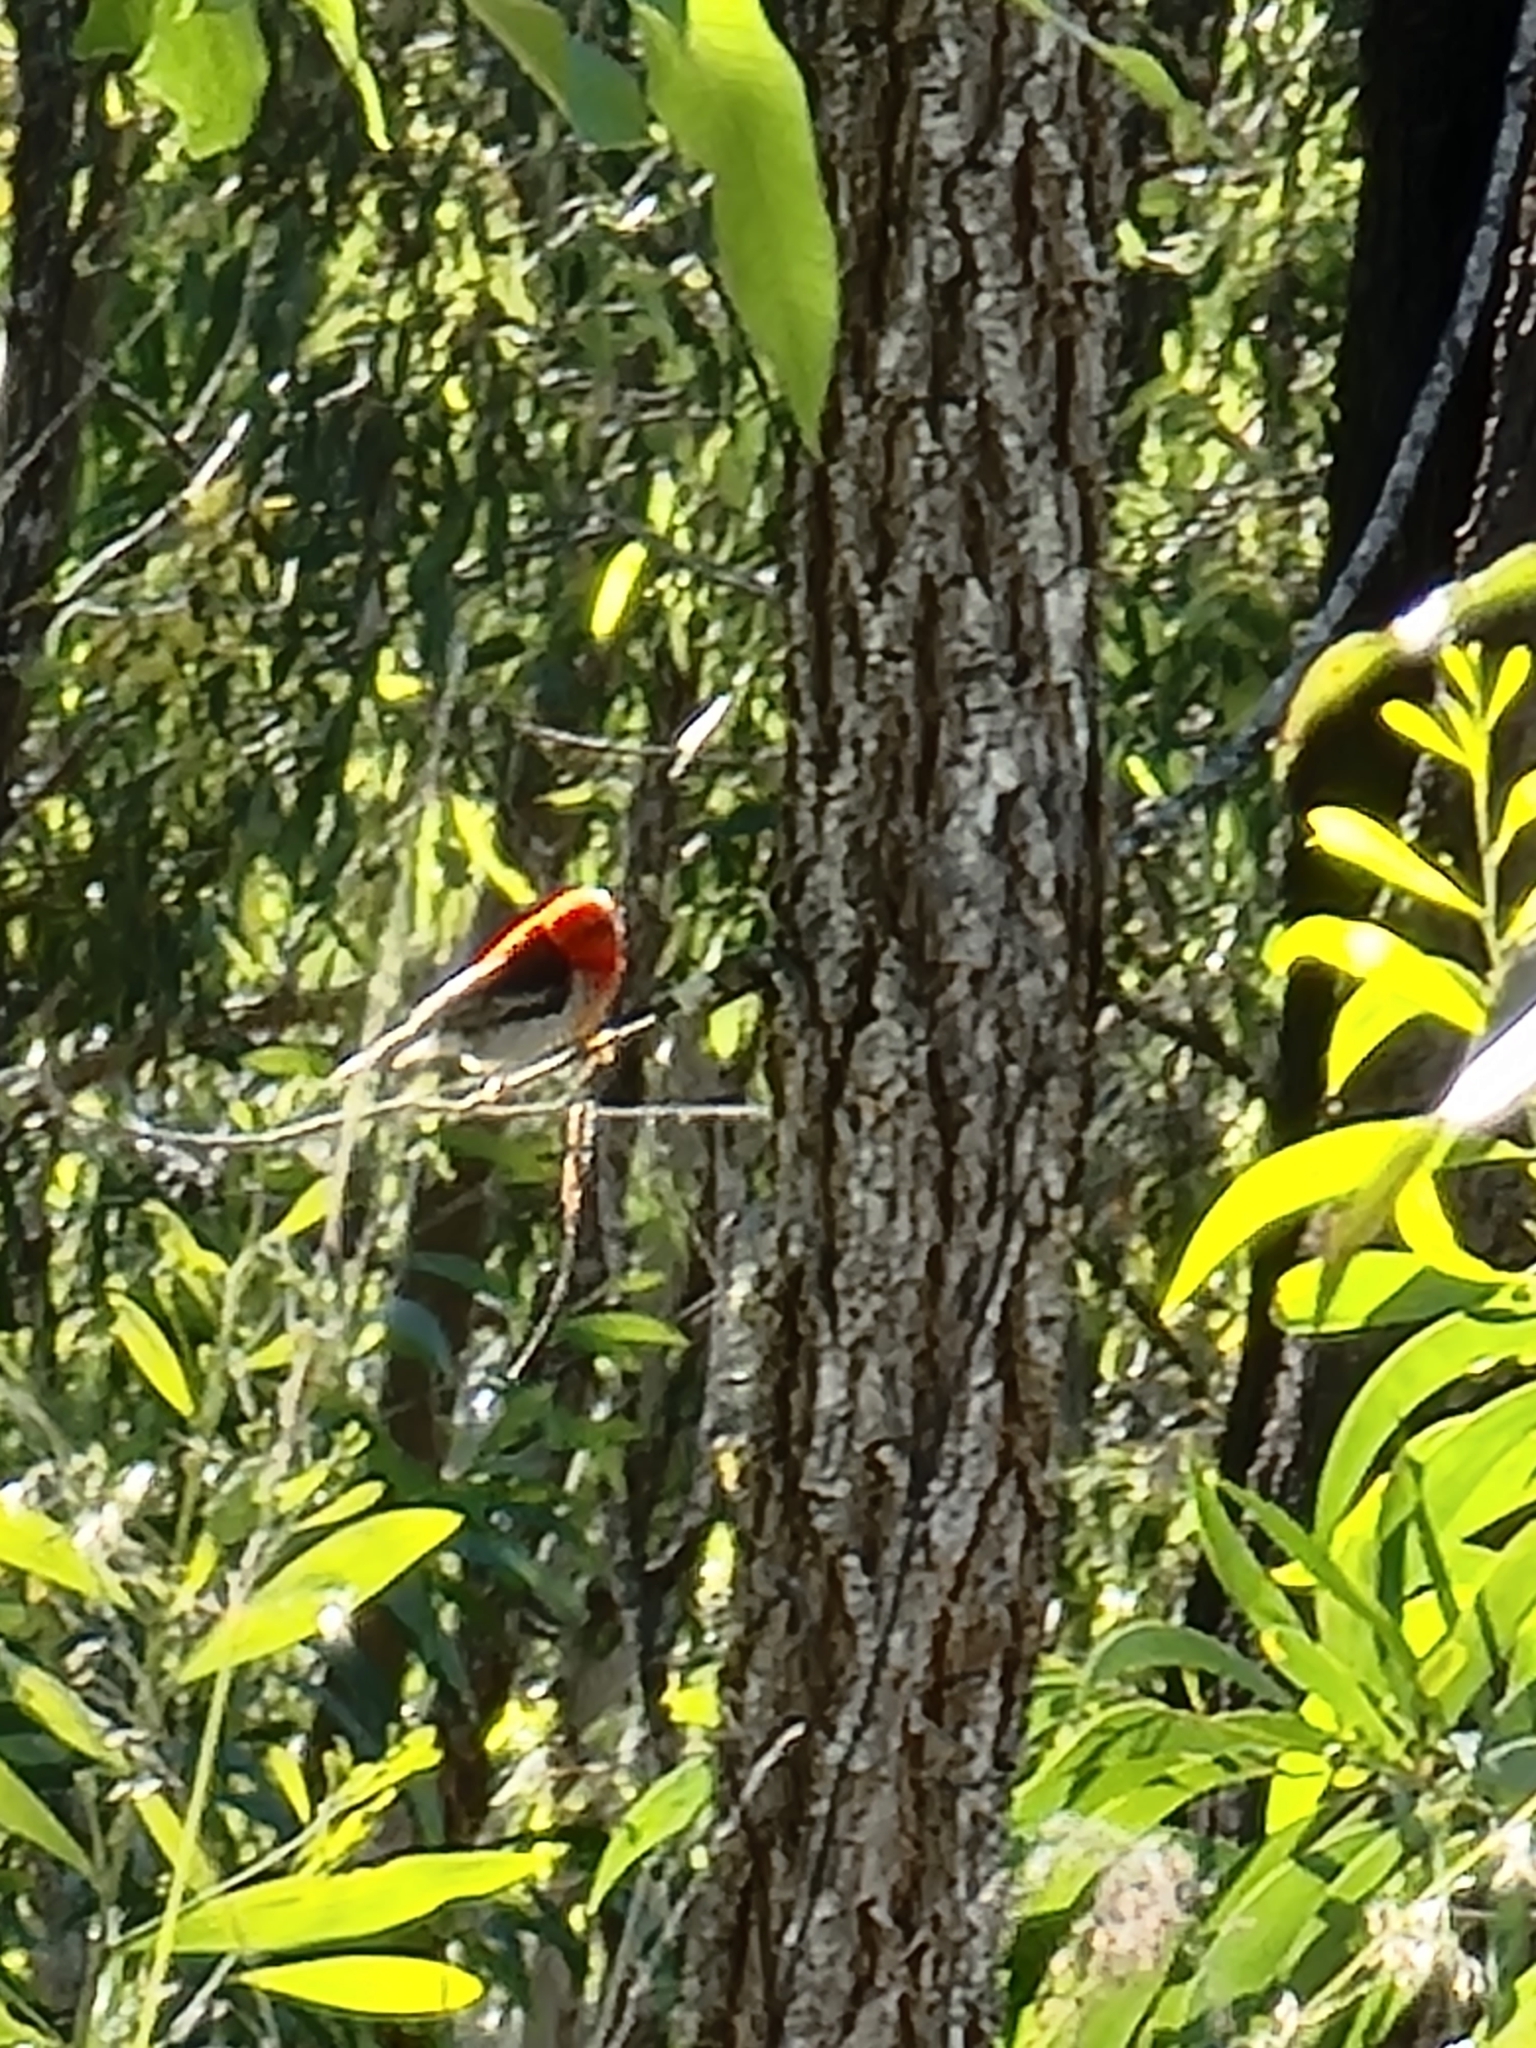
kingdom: Animalia
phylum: Chordata
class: Aves
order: Passeriformes
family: Meliphagidae
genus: Myzomela
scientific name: Myzomela sanguinolenta
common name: Scarlet myzomela
